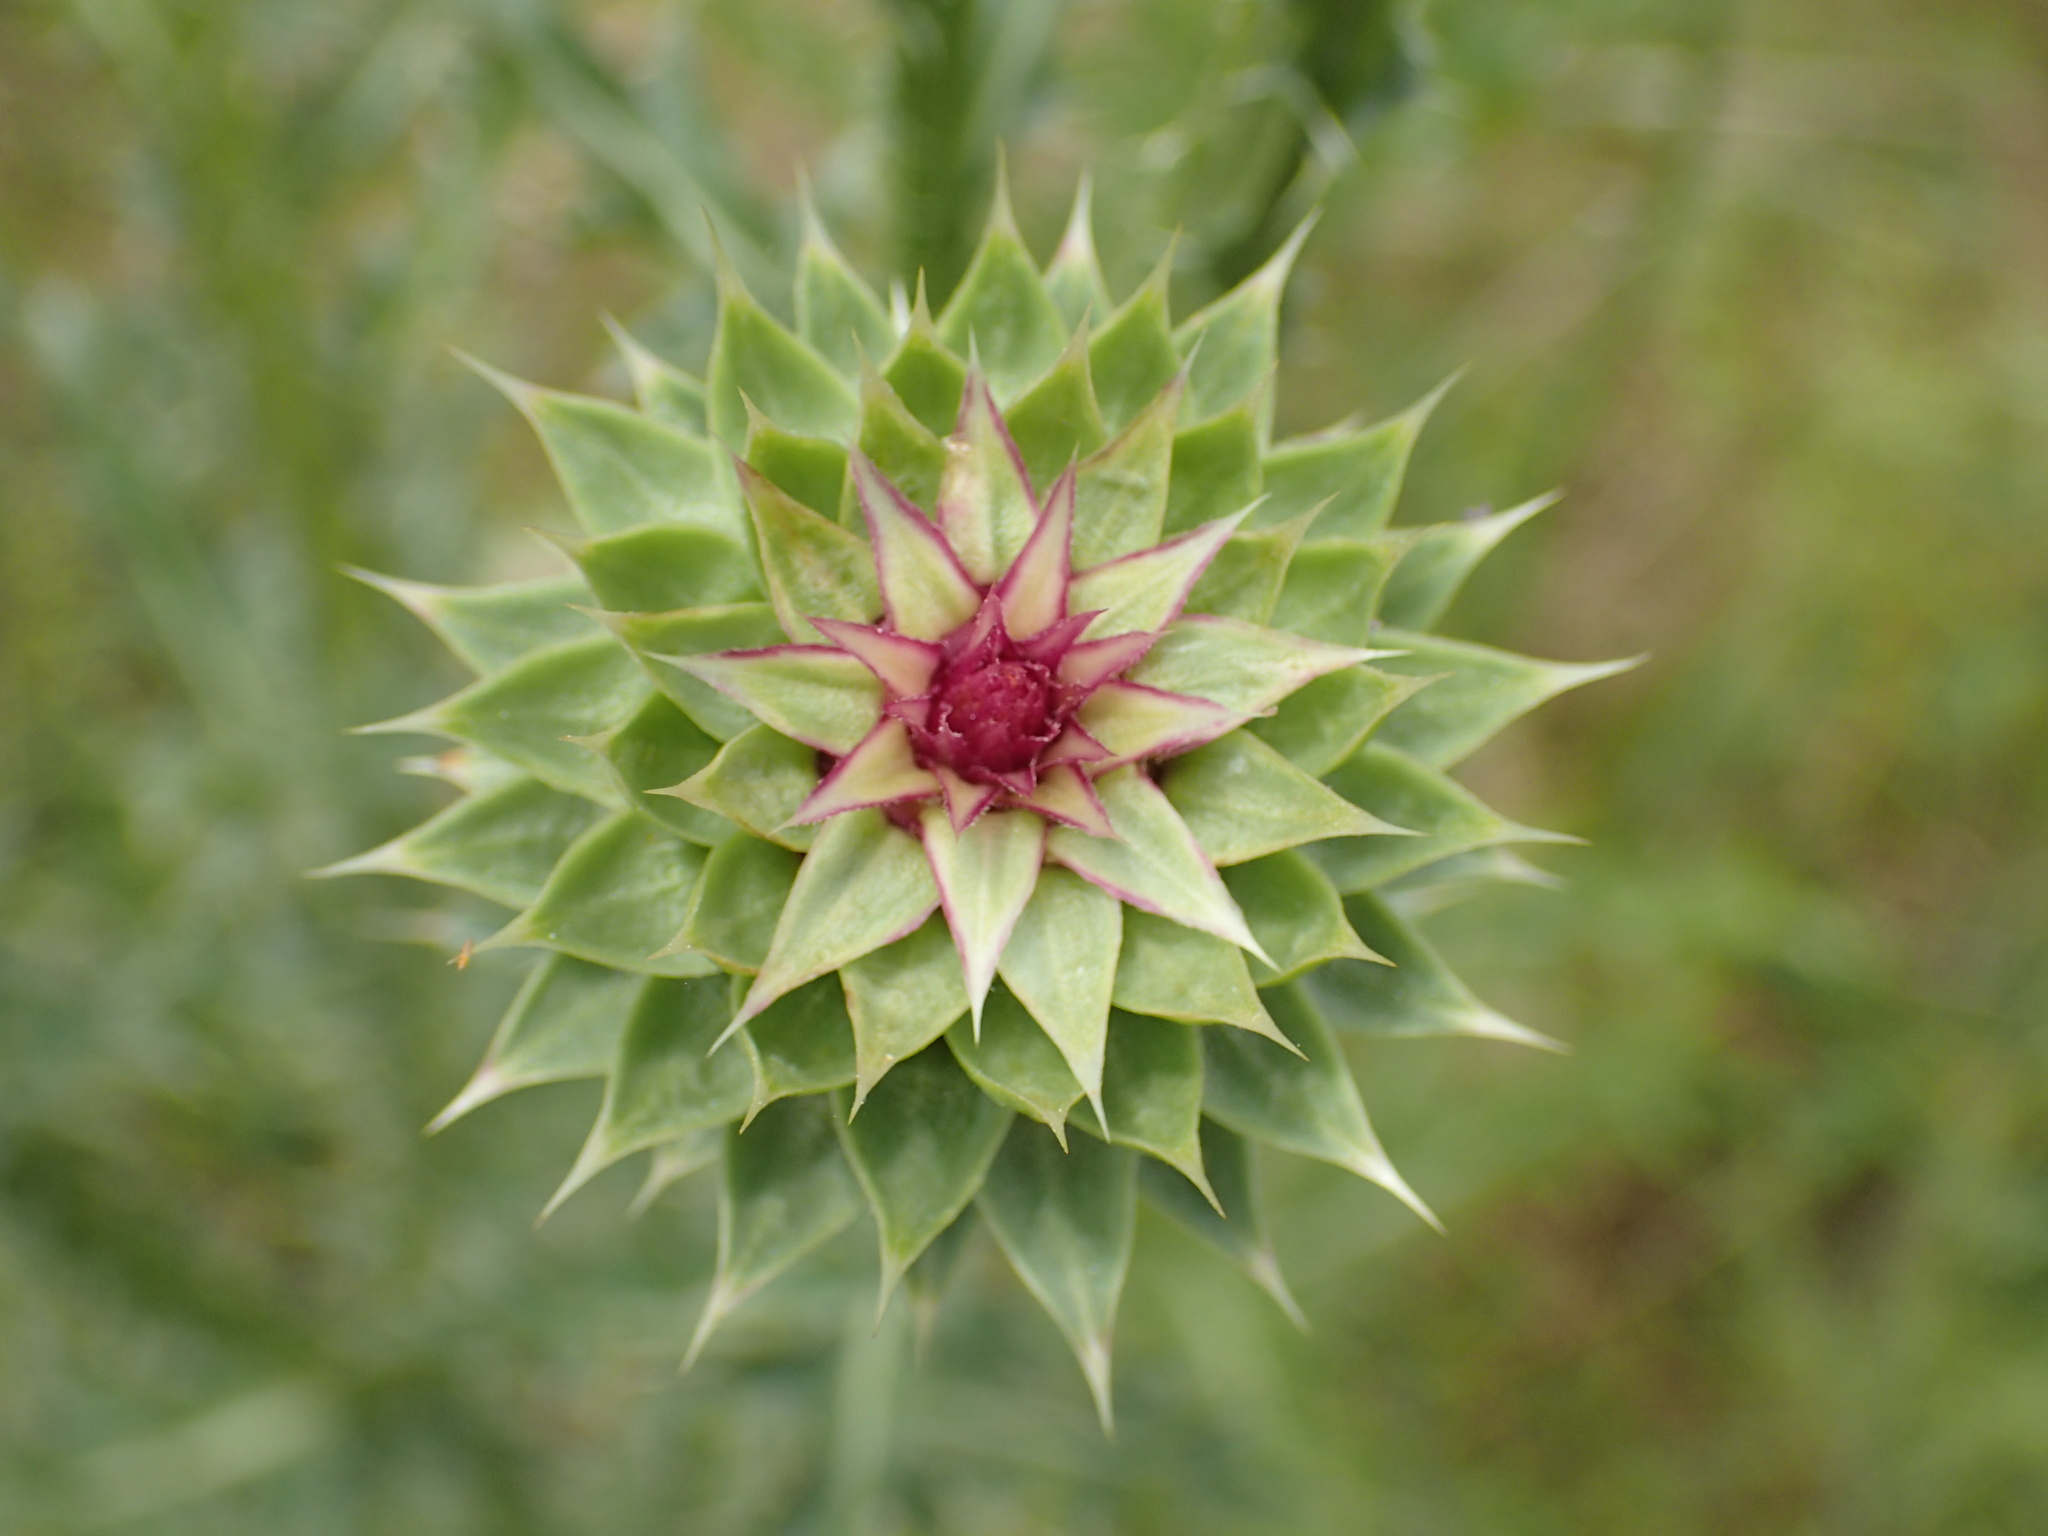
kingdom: Plantae
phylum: Tracheophyta
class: Magnoliopsida
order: Asterales
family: Asteraceae
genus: Carduus
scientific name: Carduus nutans
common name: Musk thistle
